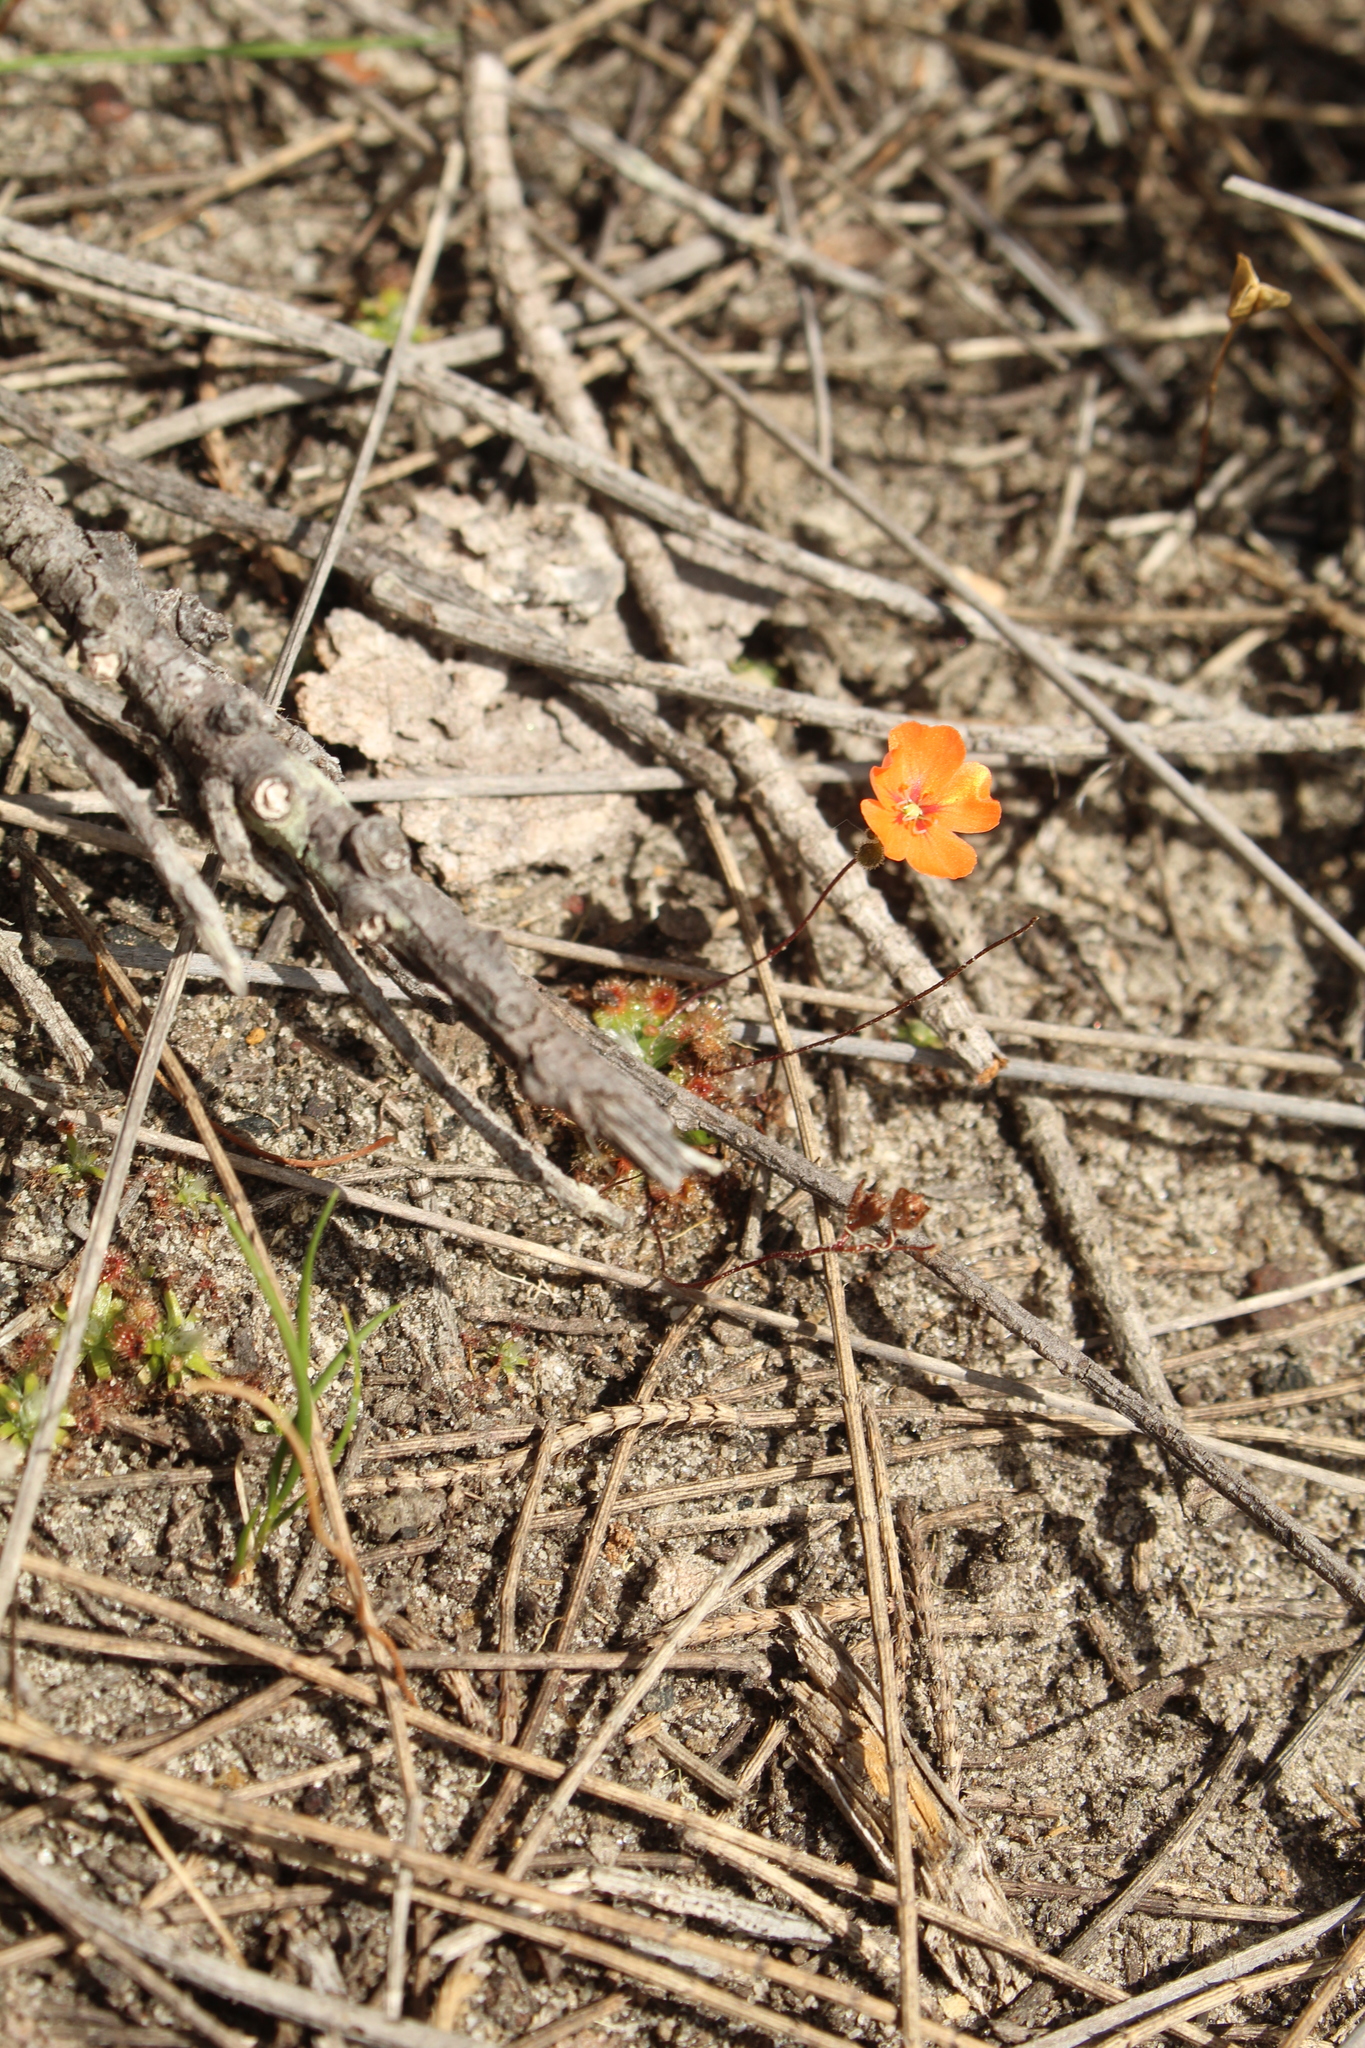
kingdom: Plantae
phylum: Tracheophyta
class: Magnoliopsida
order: Caryophyllales
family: Droseraceae
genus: Drosera
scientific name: Drosera pulchella
